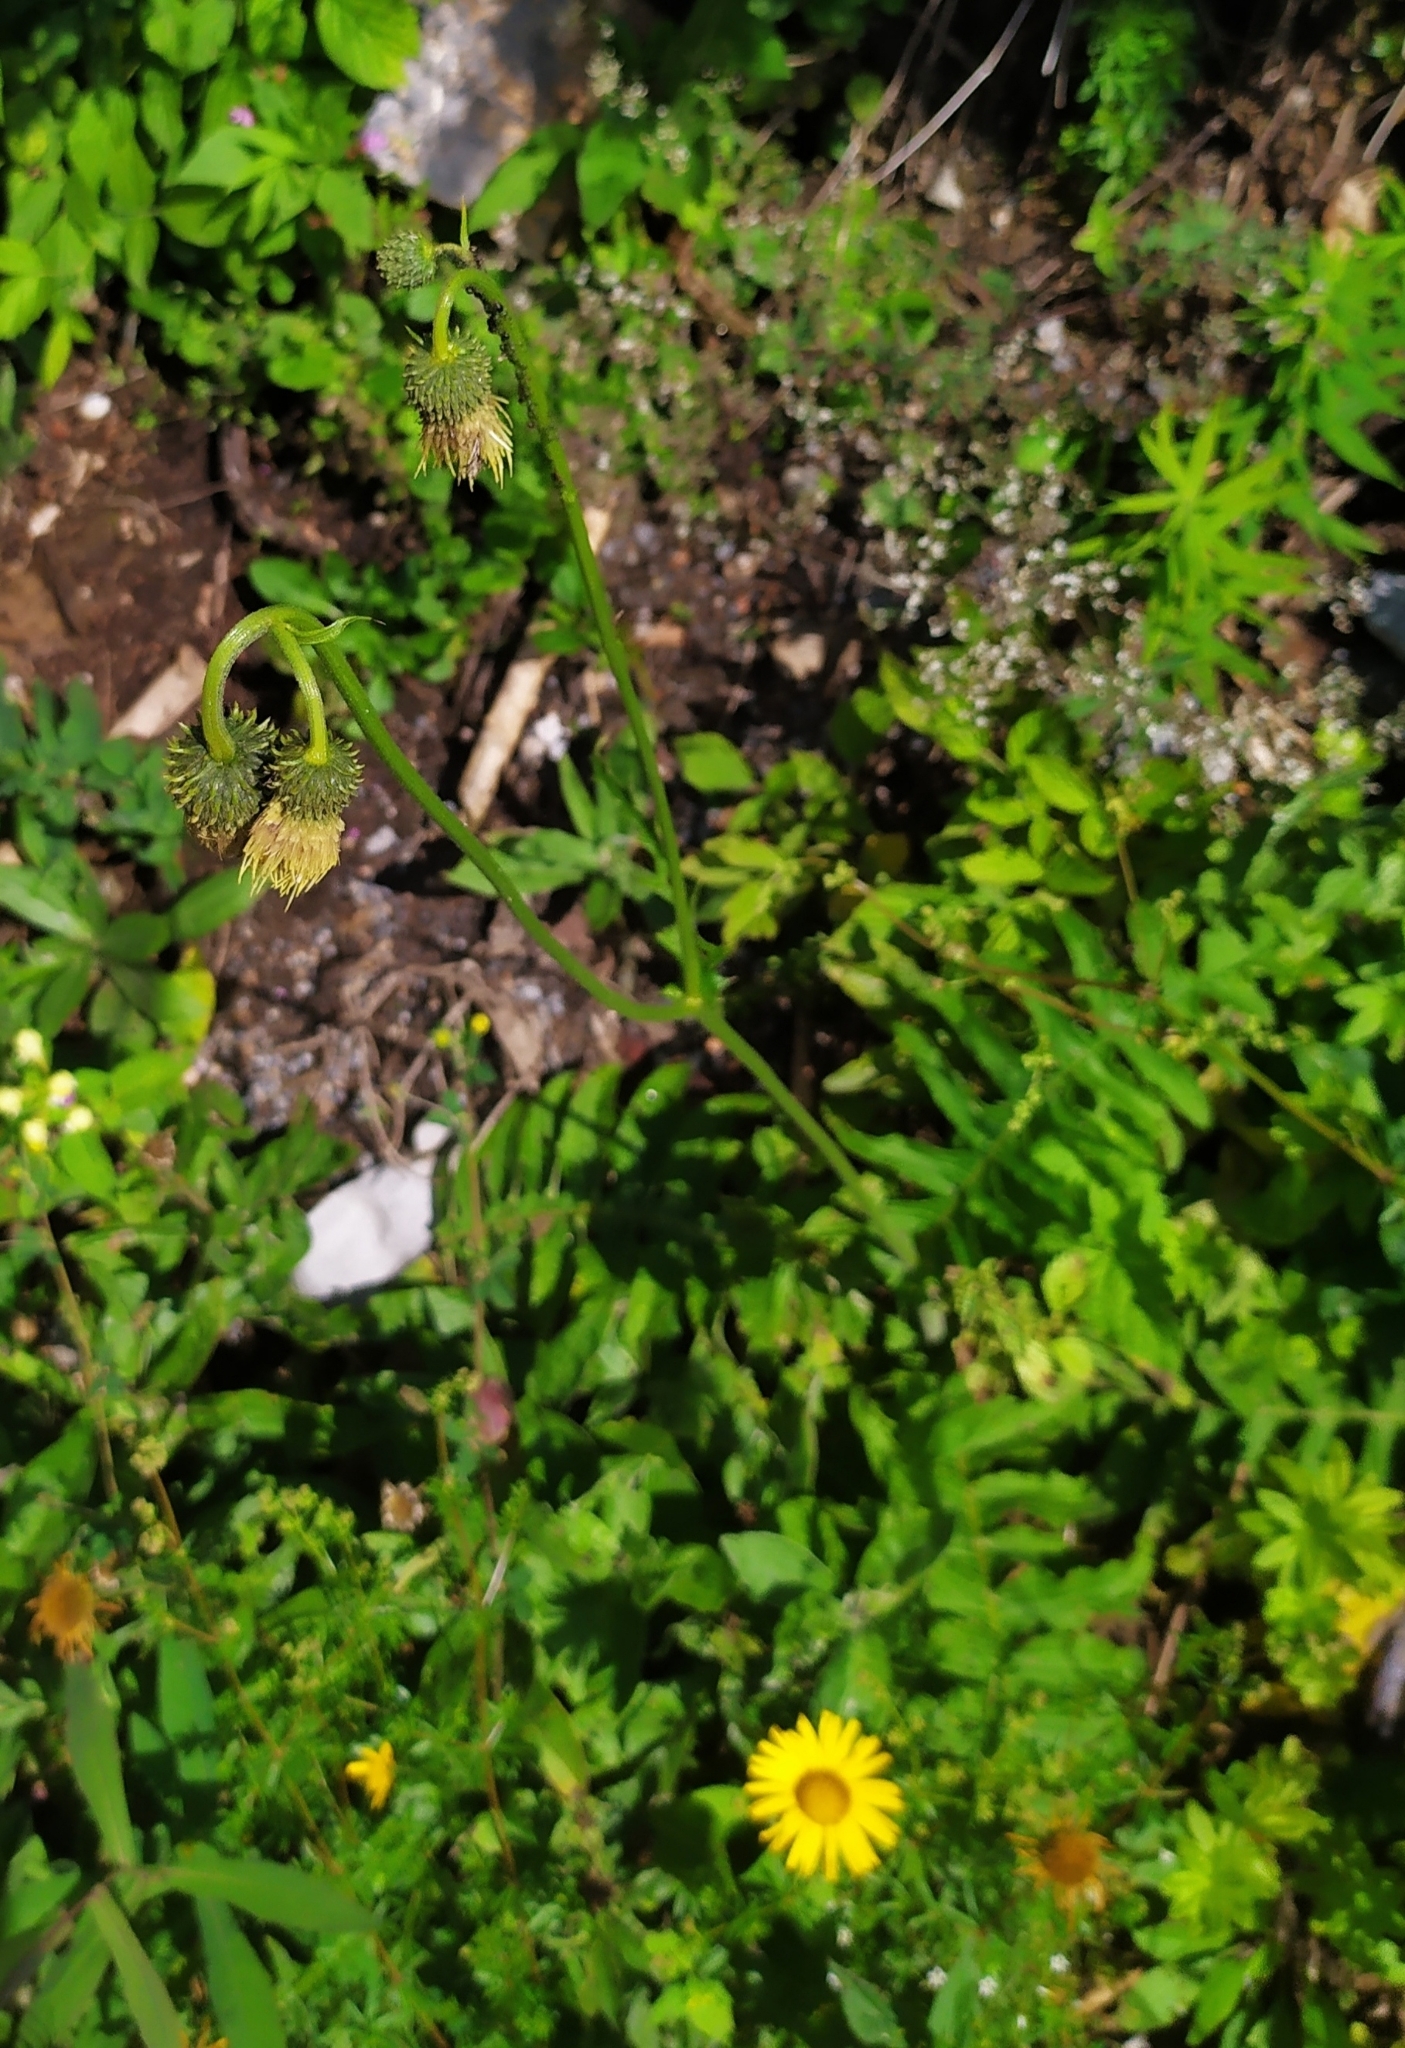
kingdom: Plantae
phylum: Tracheophyta
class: Magnoliopsida
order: Asterales
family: Asteraceae
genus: Cirsium
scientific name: Cirsium erisithales
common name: Yellow thistle
